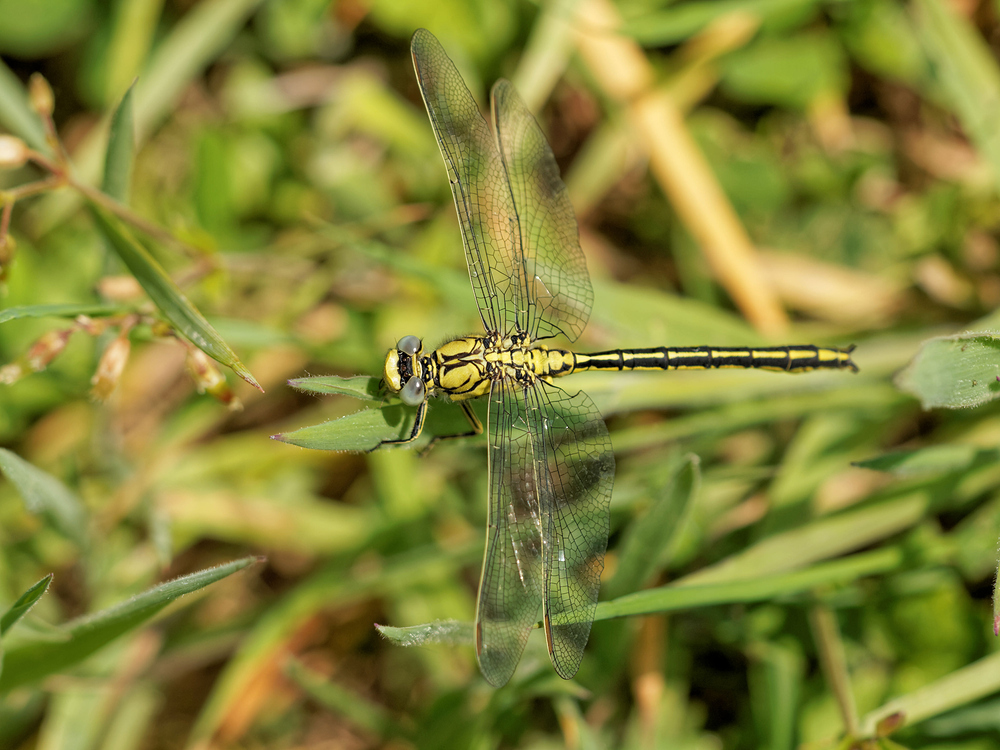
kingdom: Animalia
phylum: Arthropoda
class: Insecta
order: Odonata
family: Gomphidae
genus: Gomphus
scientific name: Gomphus pulchellus
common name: Western clubtail
